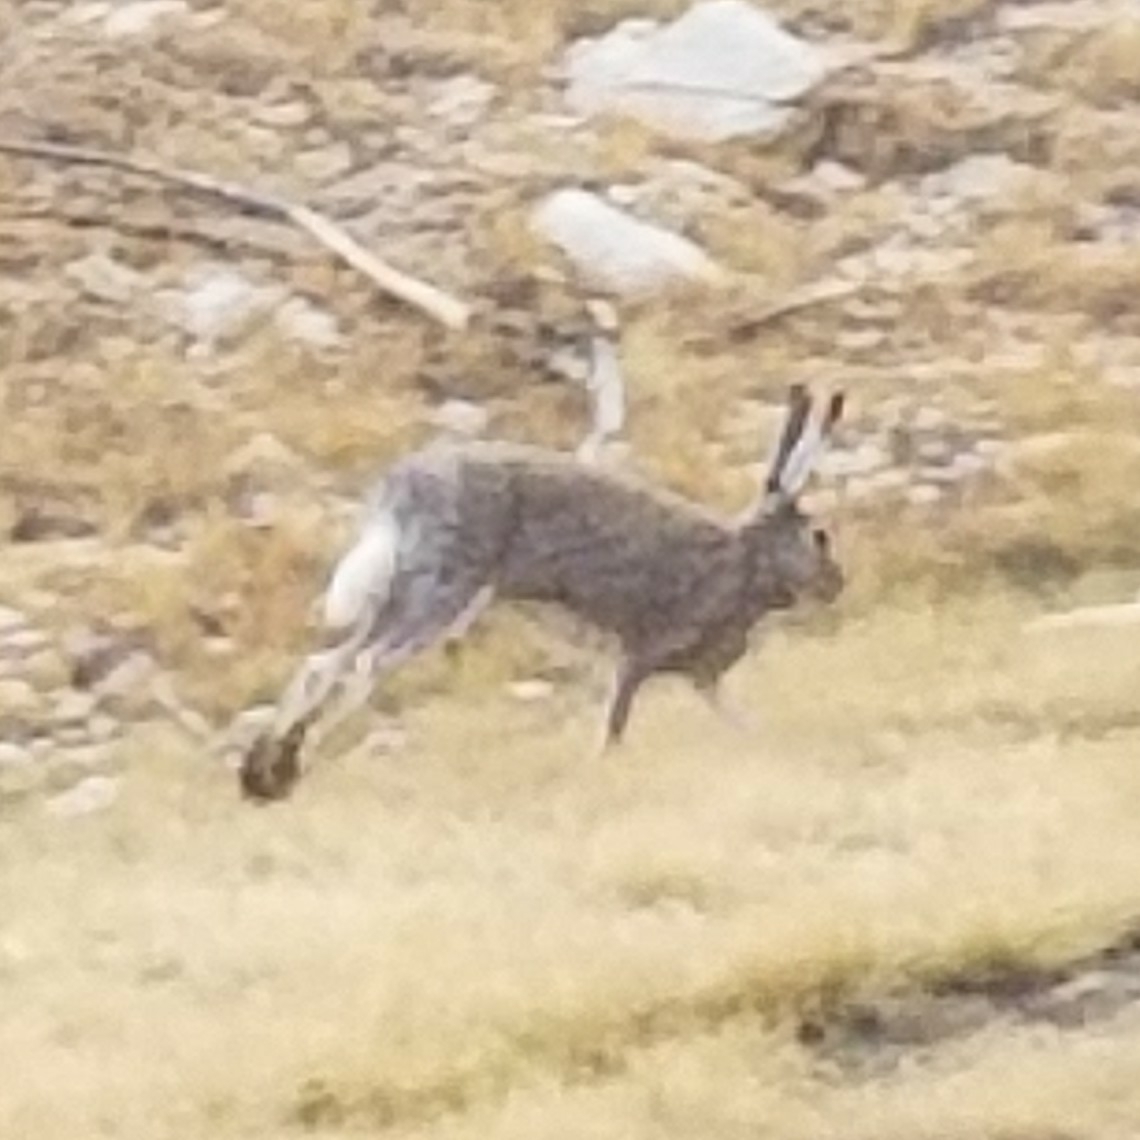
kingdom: Animalia
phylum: Chordata
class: Mammalia
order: Lagomorpha
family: Leporidae
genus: Lepus
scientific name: Lepus townsendii
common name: White-tailed jackrabbit
